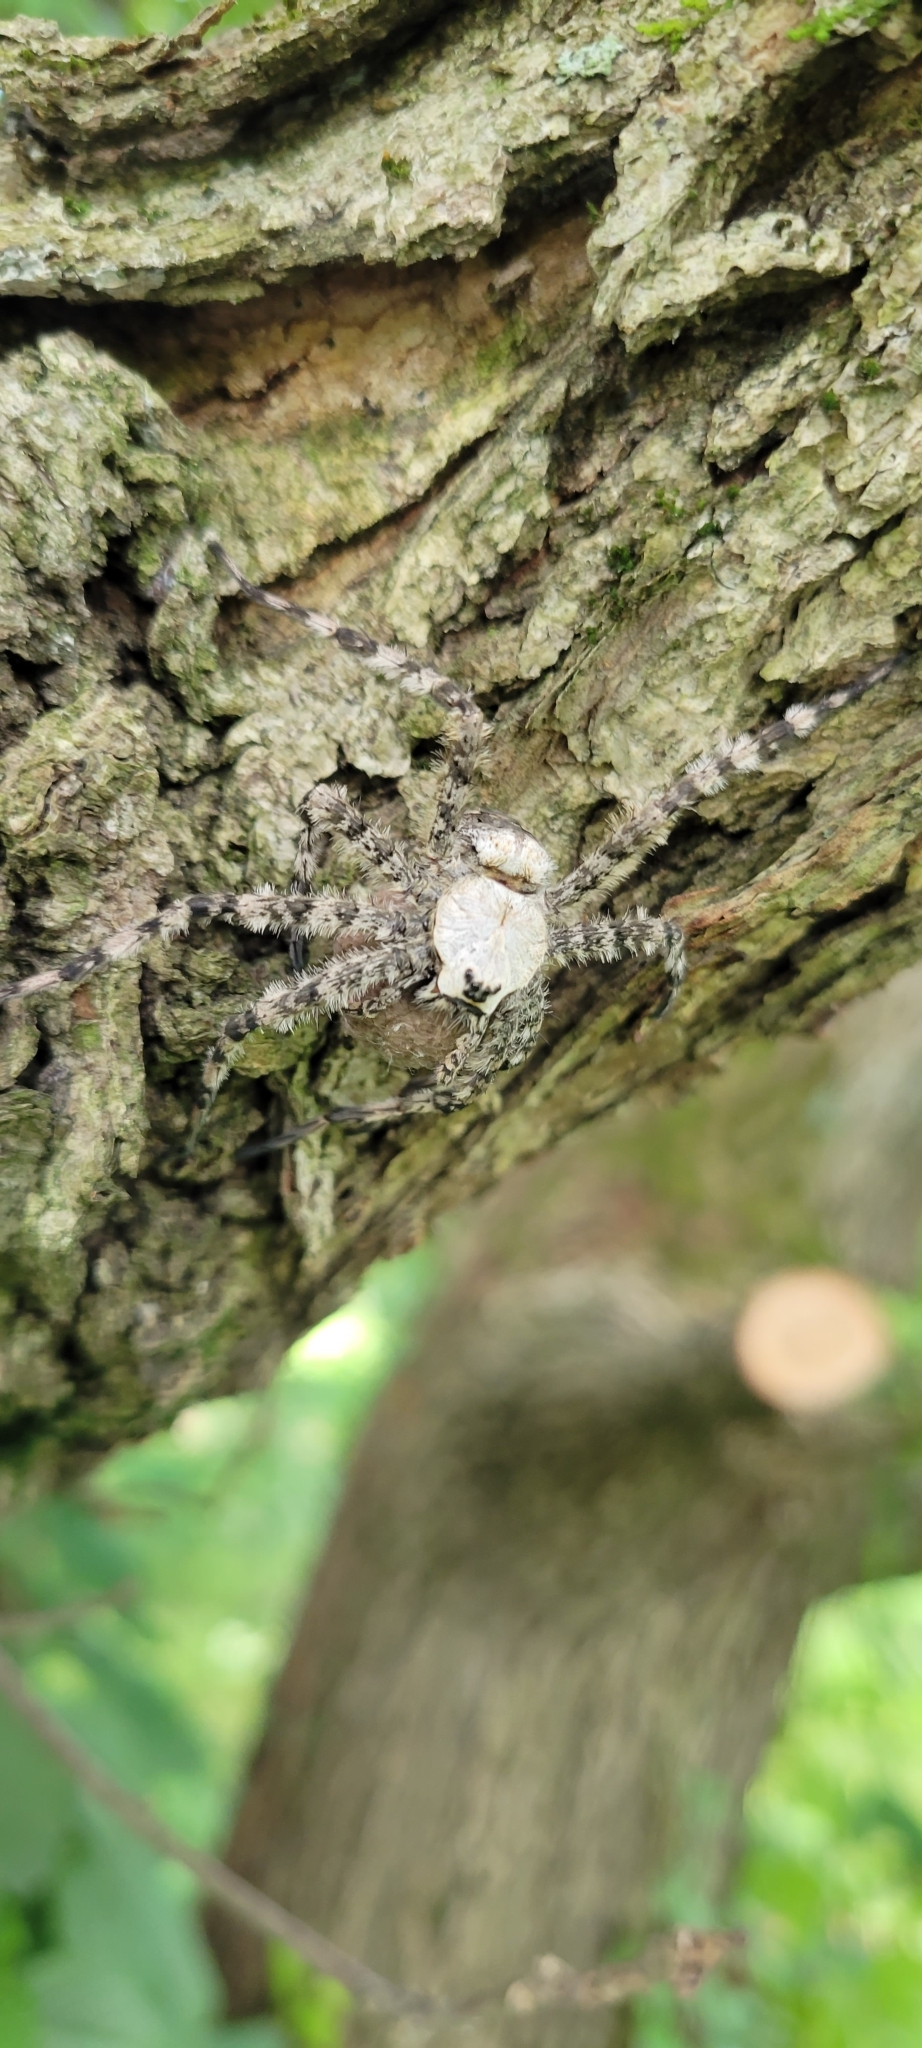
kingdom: Animalia
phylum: Arthropoda
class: Arachnida
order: Araneae
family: Pisauridae
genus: Dolomedes
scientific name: Dolomedes albineus
